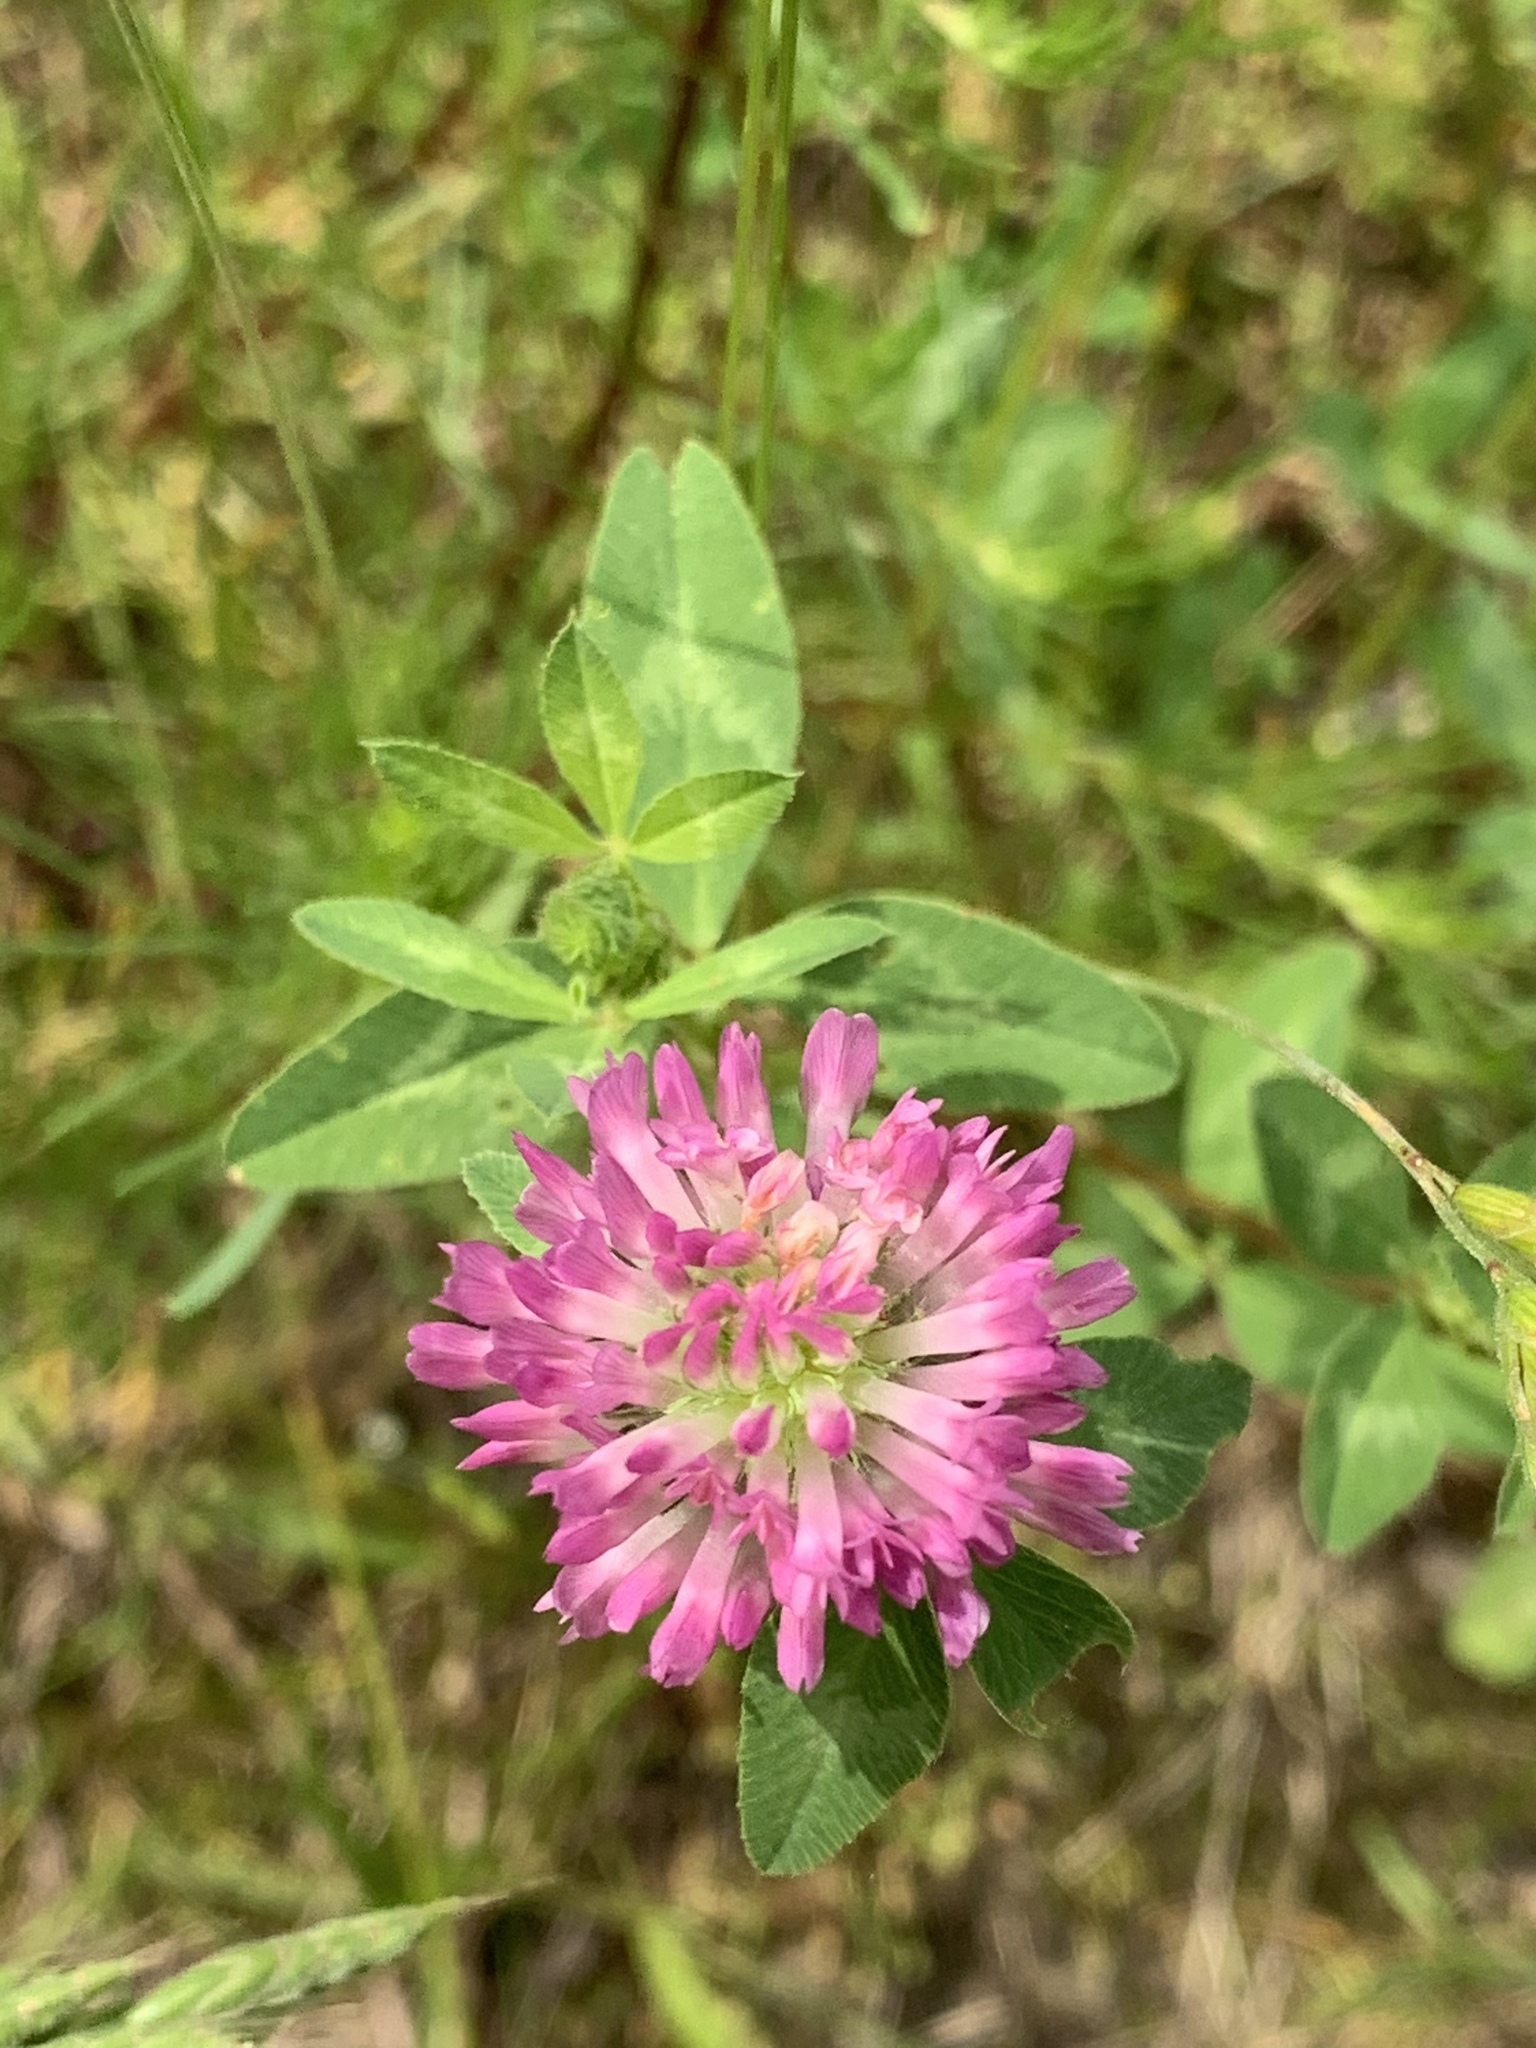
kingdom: Plantae
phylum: Tracheophyta
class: Magnoliopsida
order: Fabales
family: Fabaceae
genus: Trifolium
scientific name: Trifolium pratense
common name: Red clover
